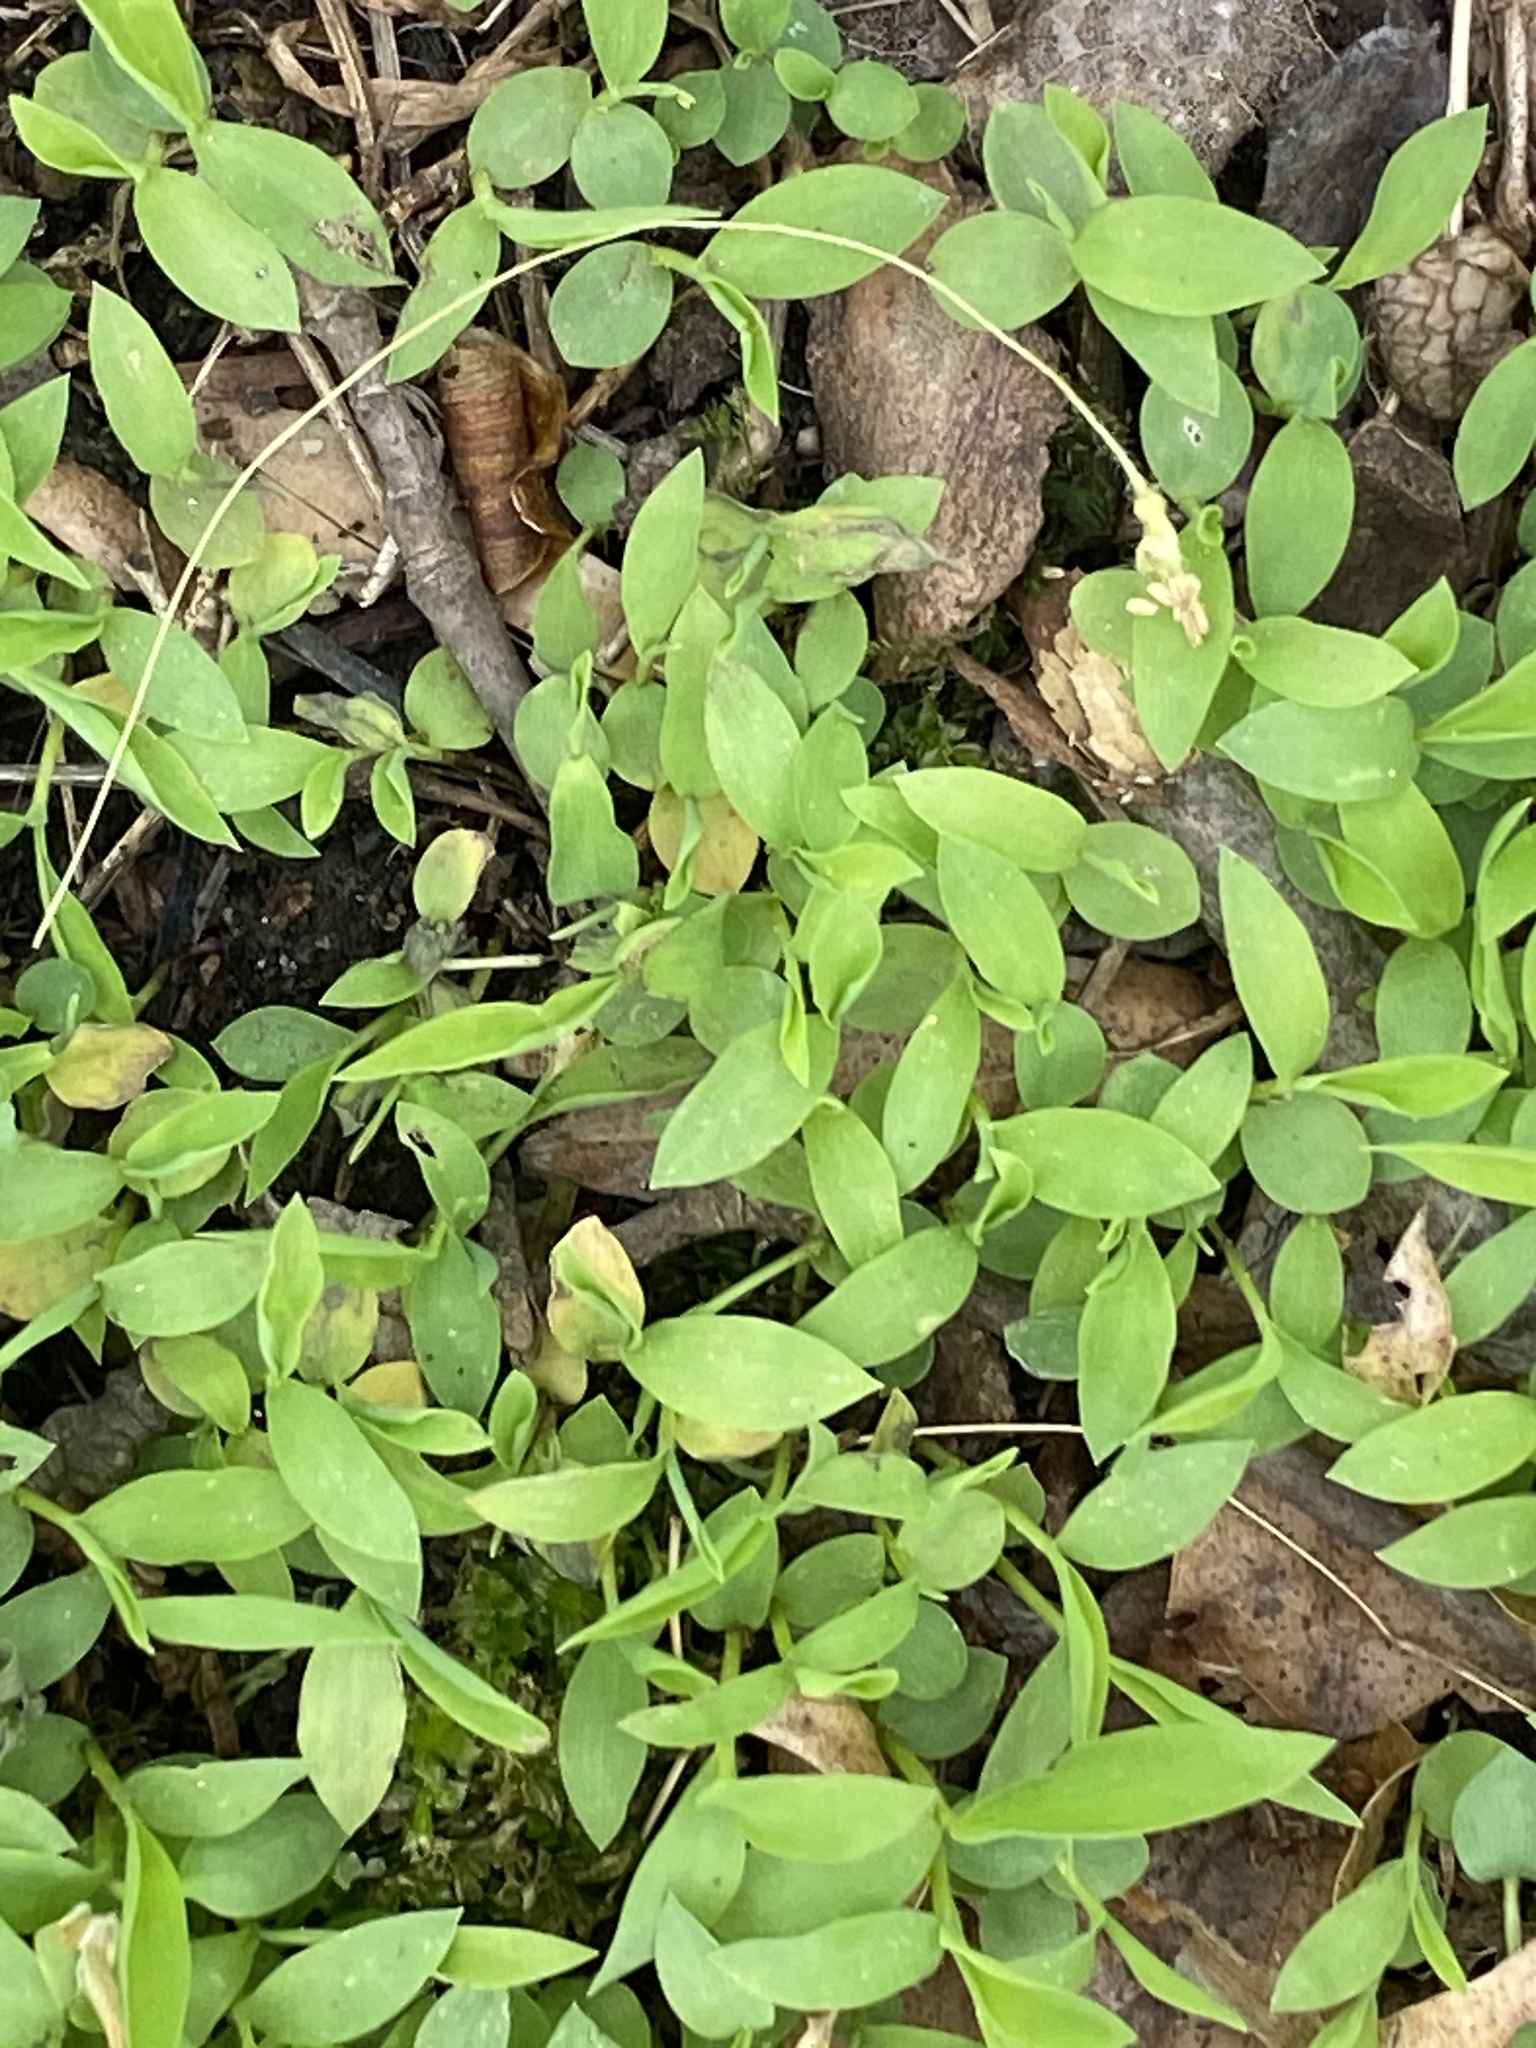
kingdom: Plantae
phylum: Tracheophyta
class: Liliopsida
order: Poales
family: Poaceae
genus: Microstegium
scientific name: Microstegium vimineum
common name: Japanese stiltgrass
